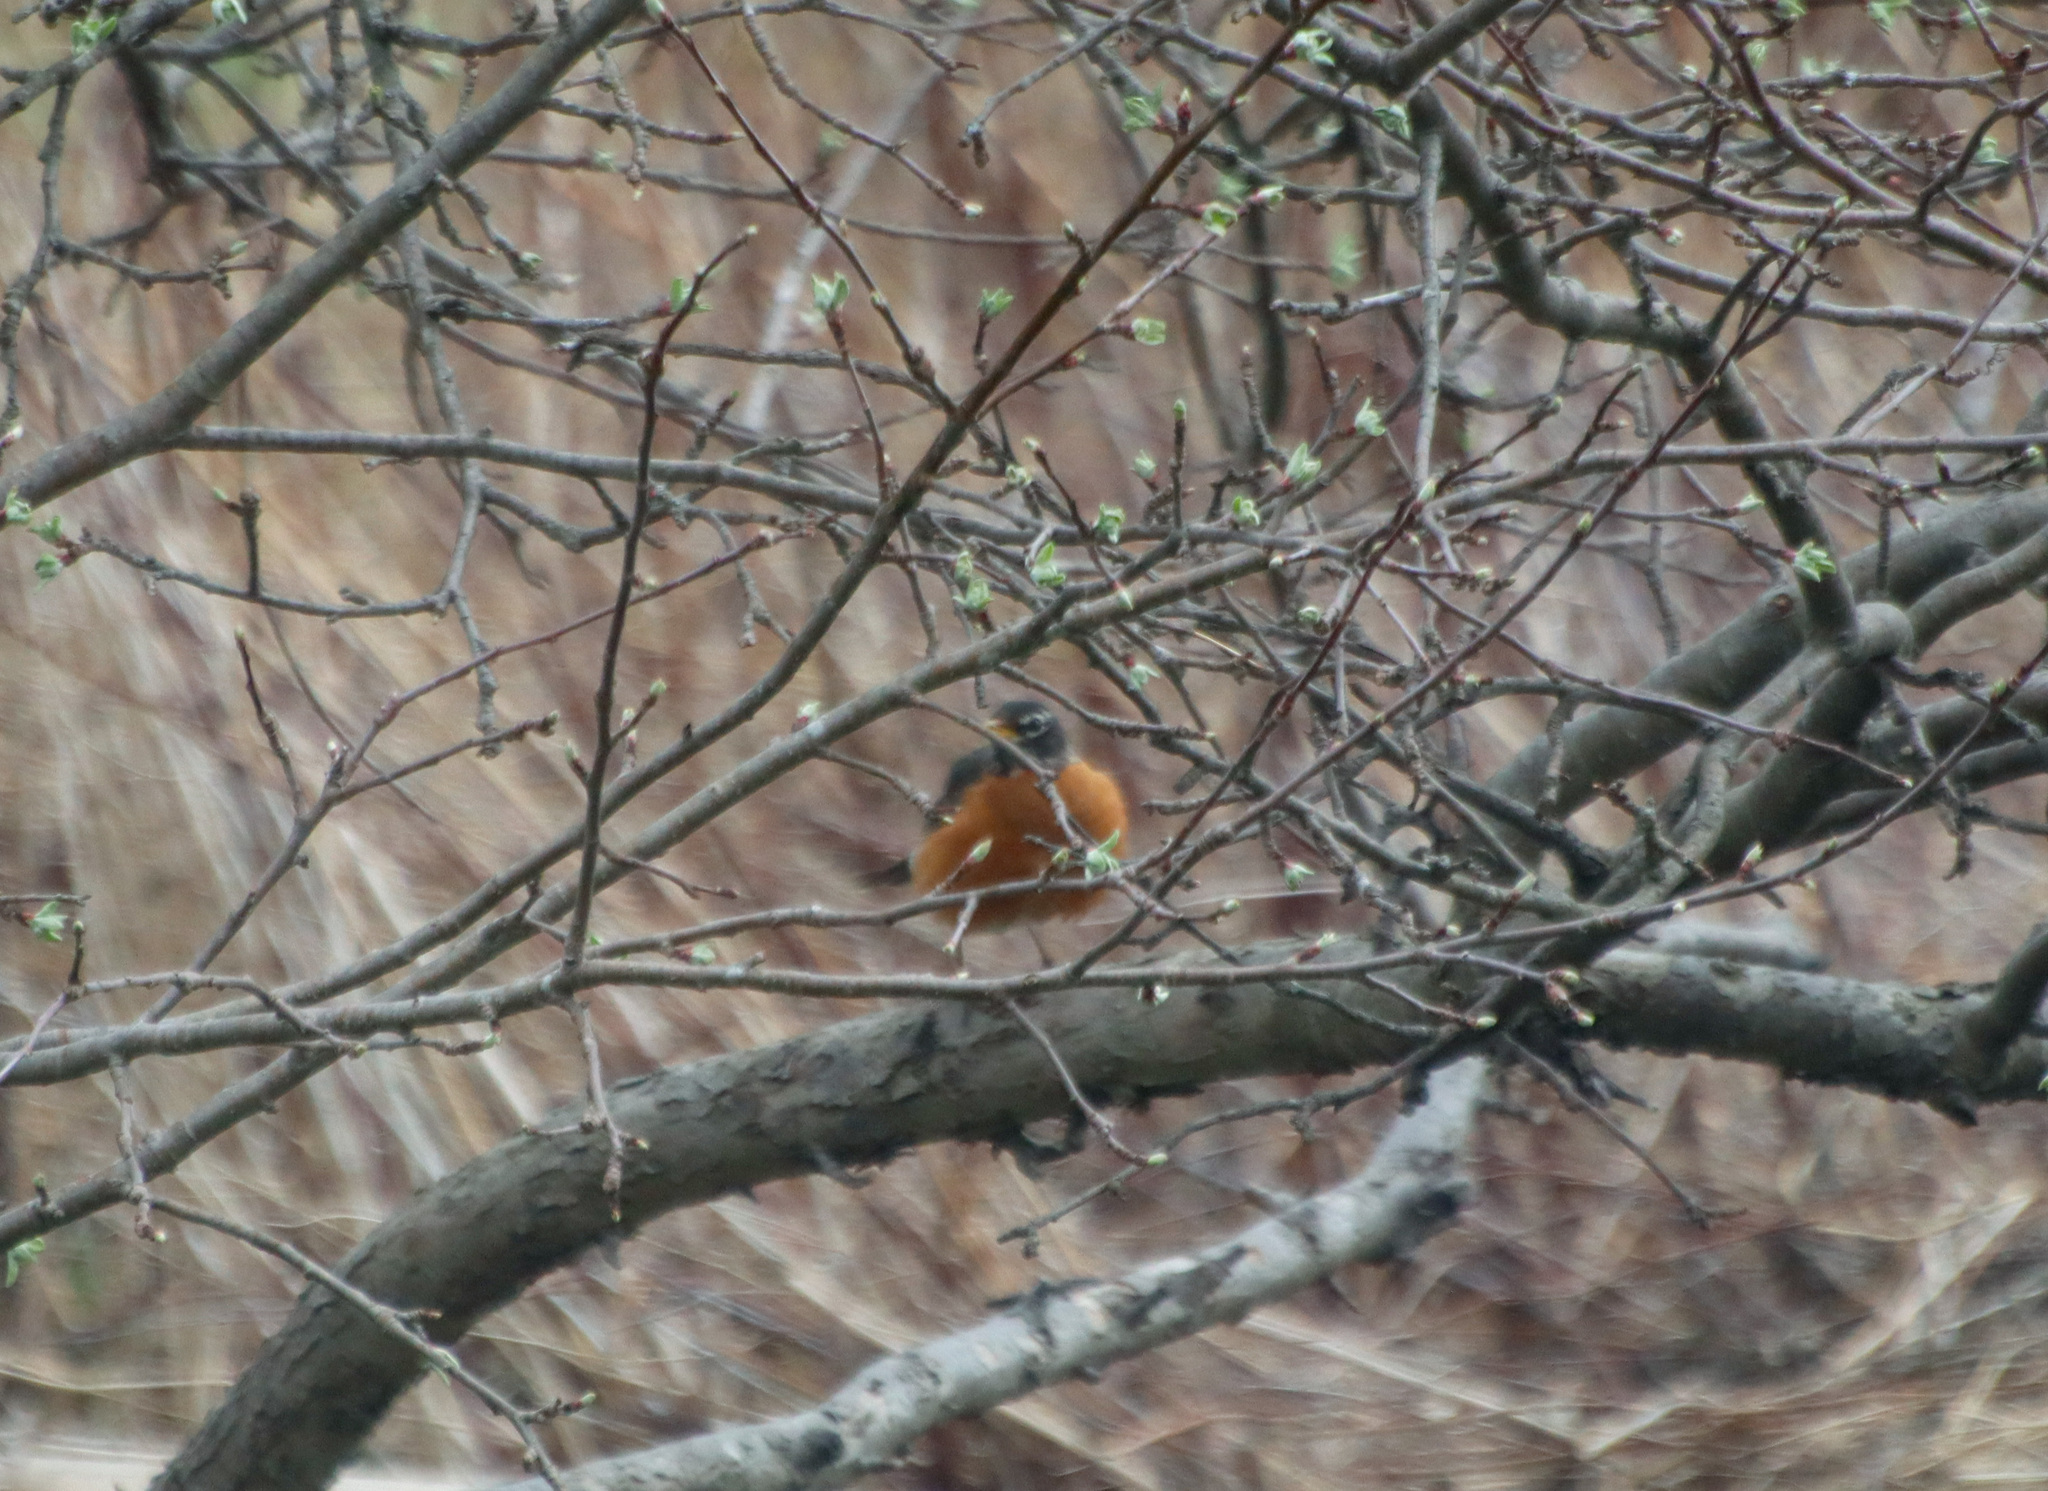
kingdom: Animalia
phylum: Chordata
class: Aves
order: Passeriformes
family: Turdidae
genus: Turdus
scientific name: Turdus migratorius
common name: American robin
